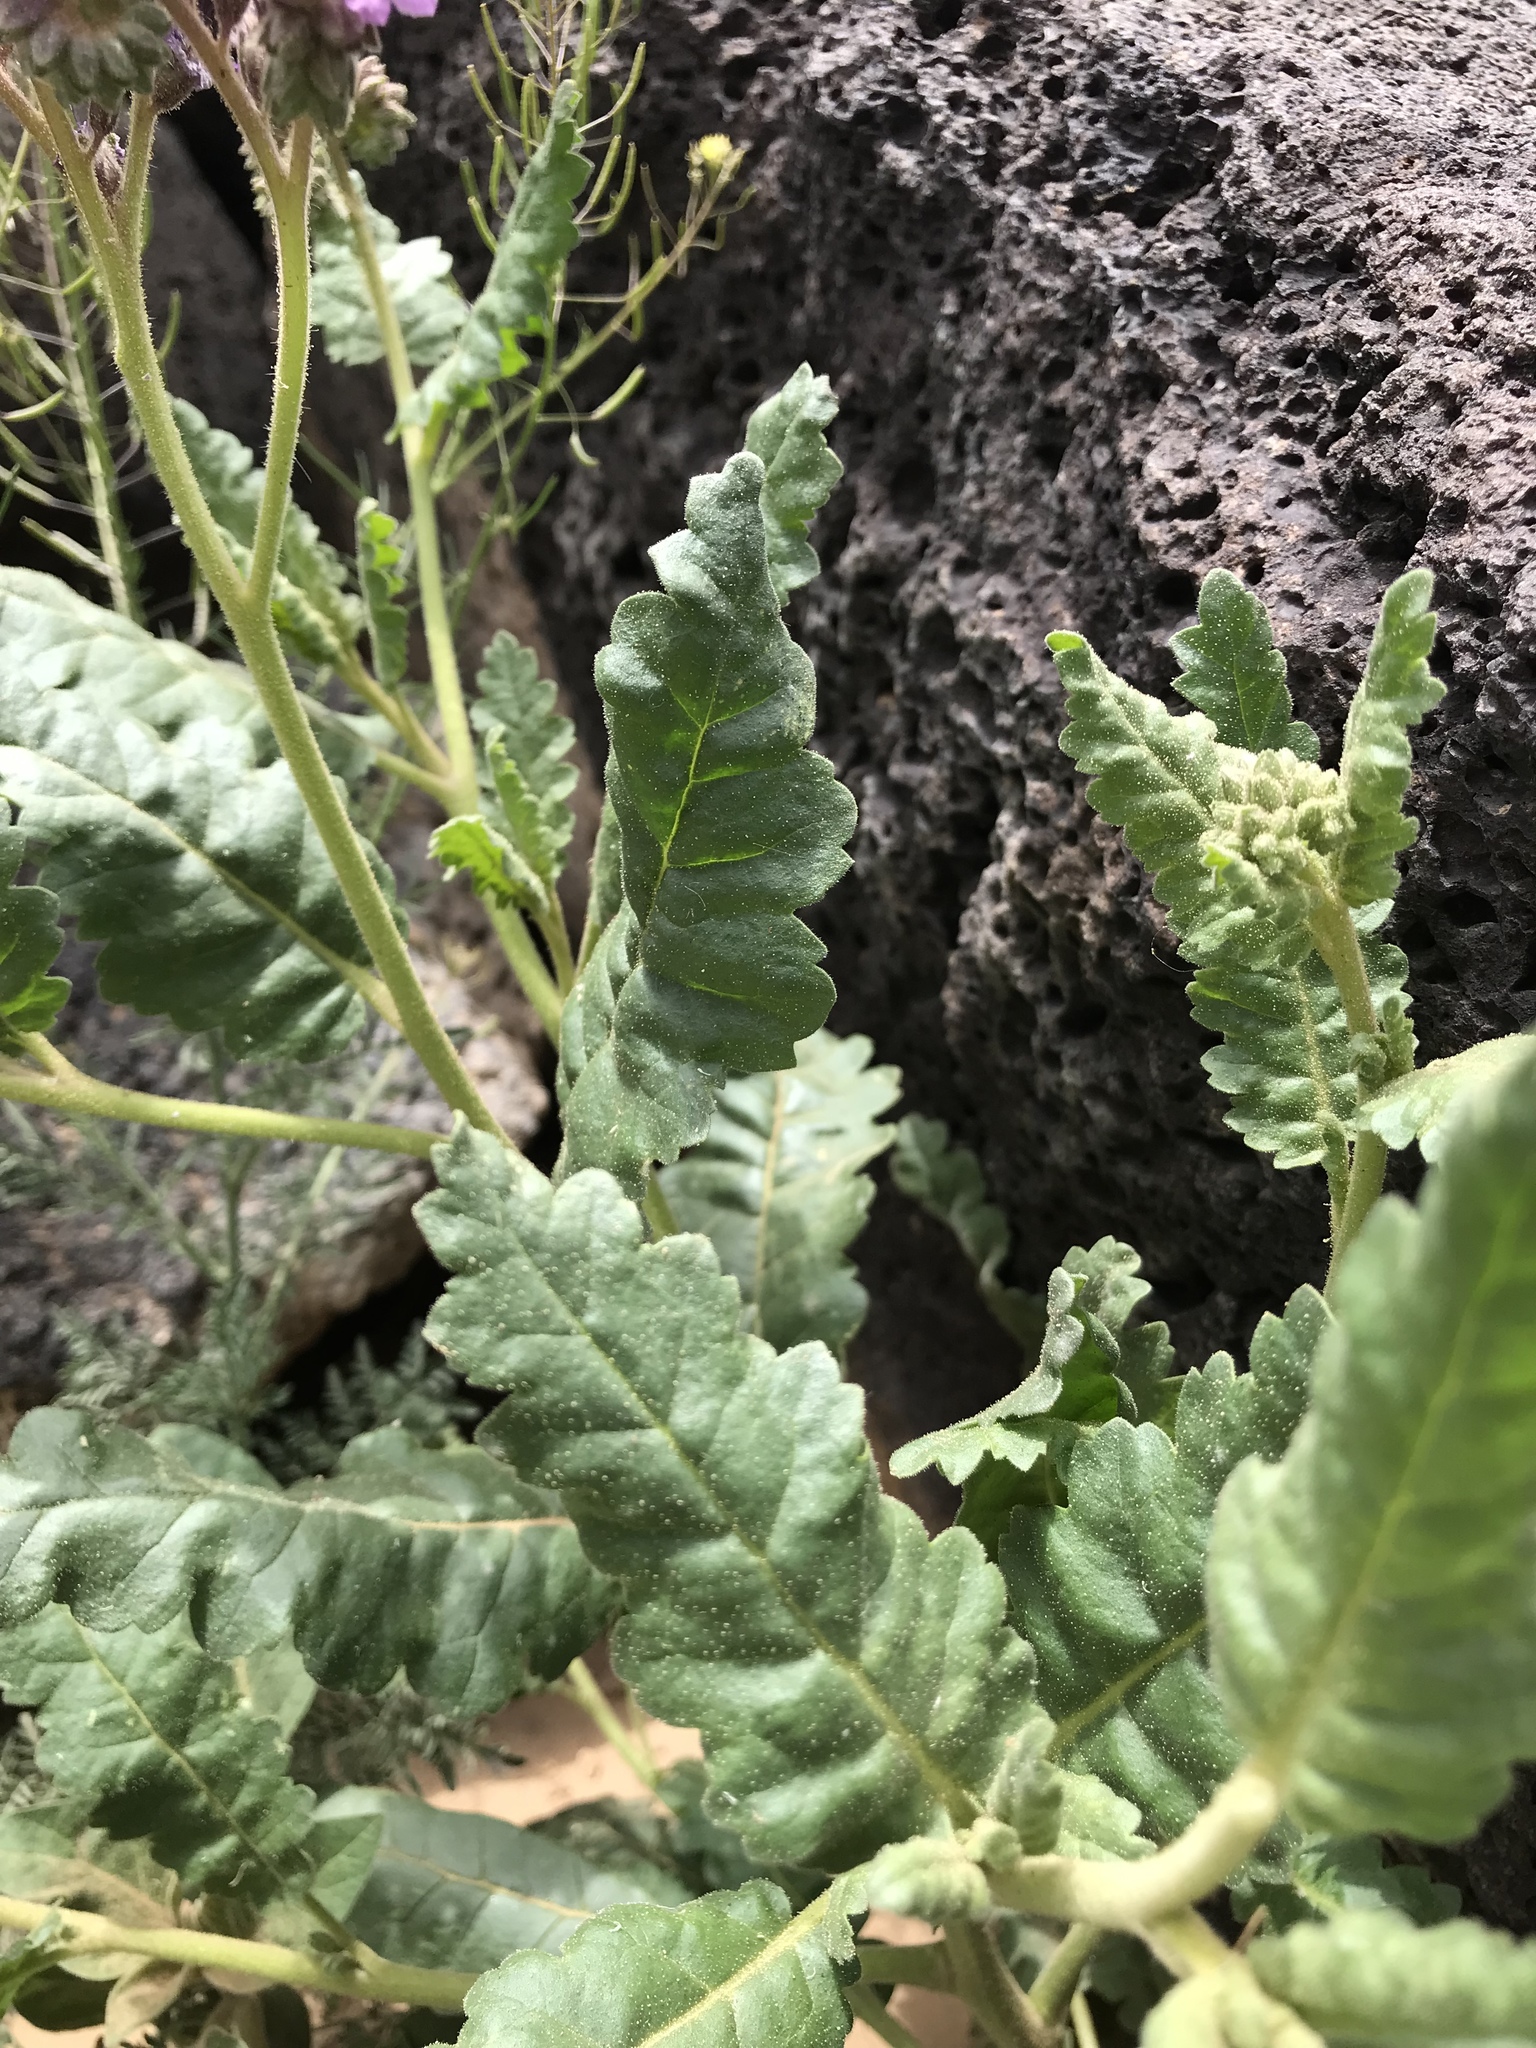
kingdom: Plantae
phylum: Tracheophyta
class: Magnoliopsida
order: Boraginales
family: Hydrophyllaceae
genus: Phacelia
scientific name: Phacelia integrifolia
